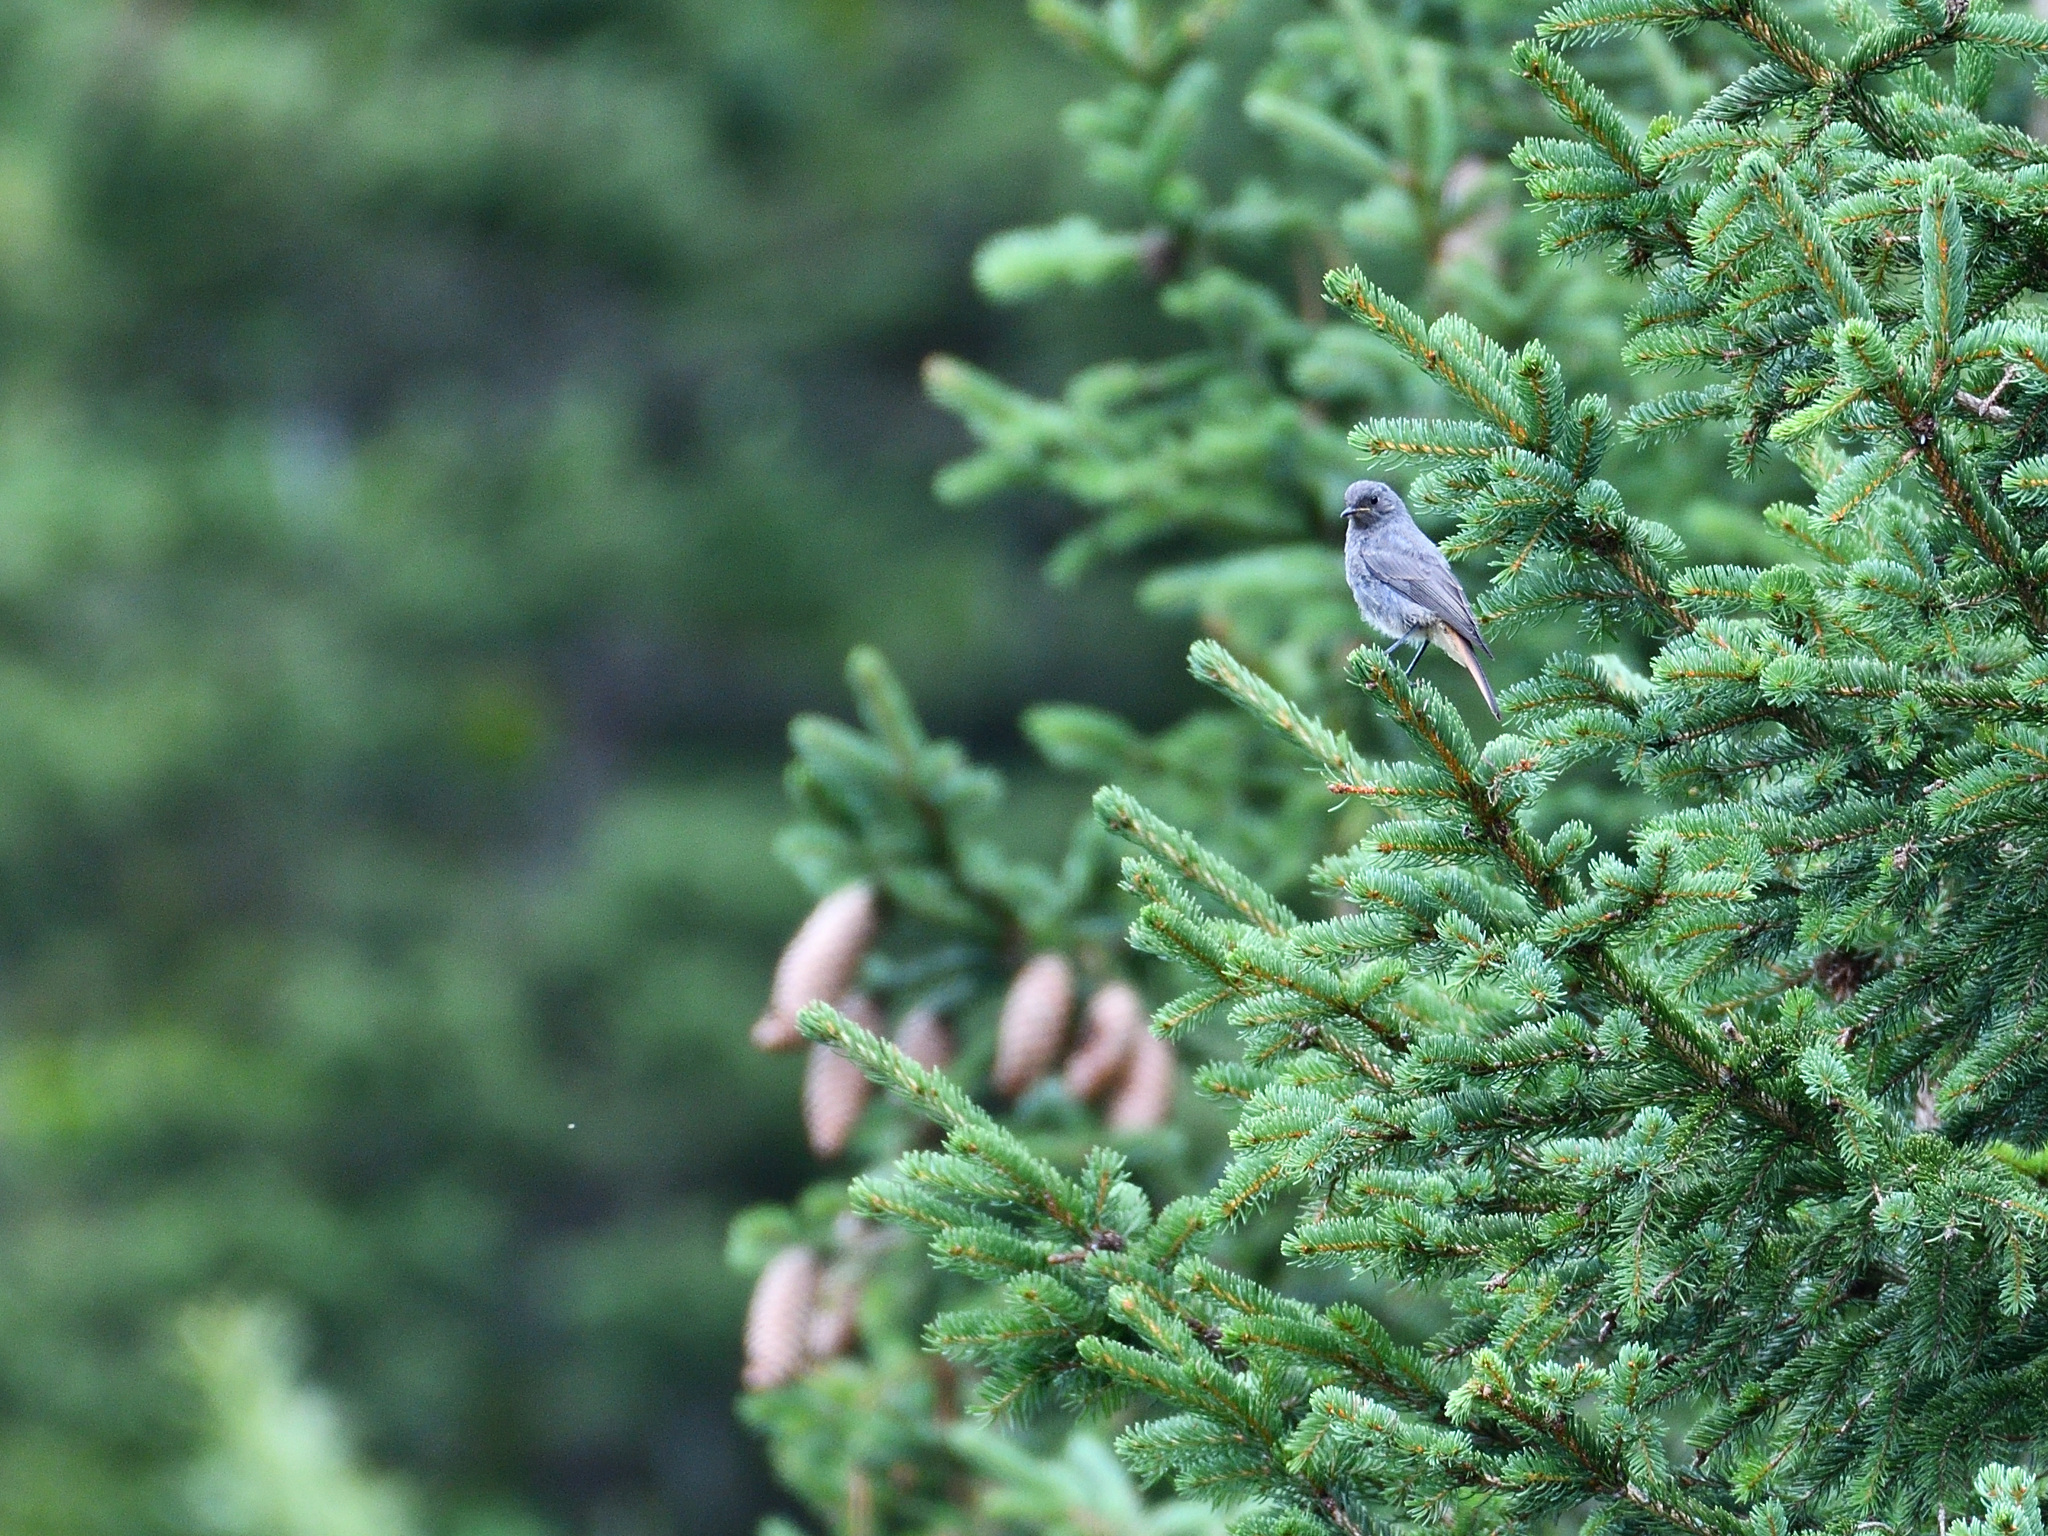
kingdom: Animalia
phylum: Chordata
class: Aves
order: Passeriformes
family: Muscicapidae
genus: Phoenicurus
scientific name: Phoenicurus ochruros
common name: Black redstart
